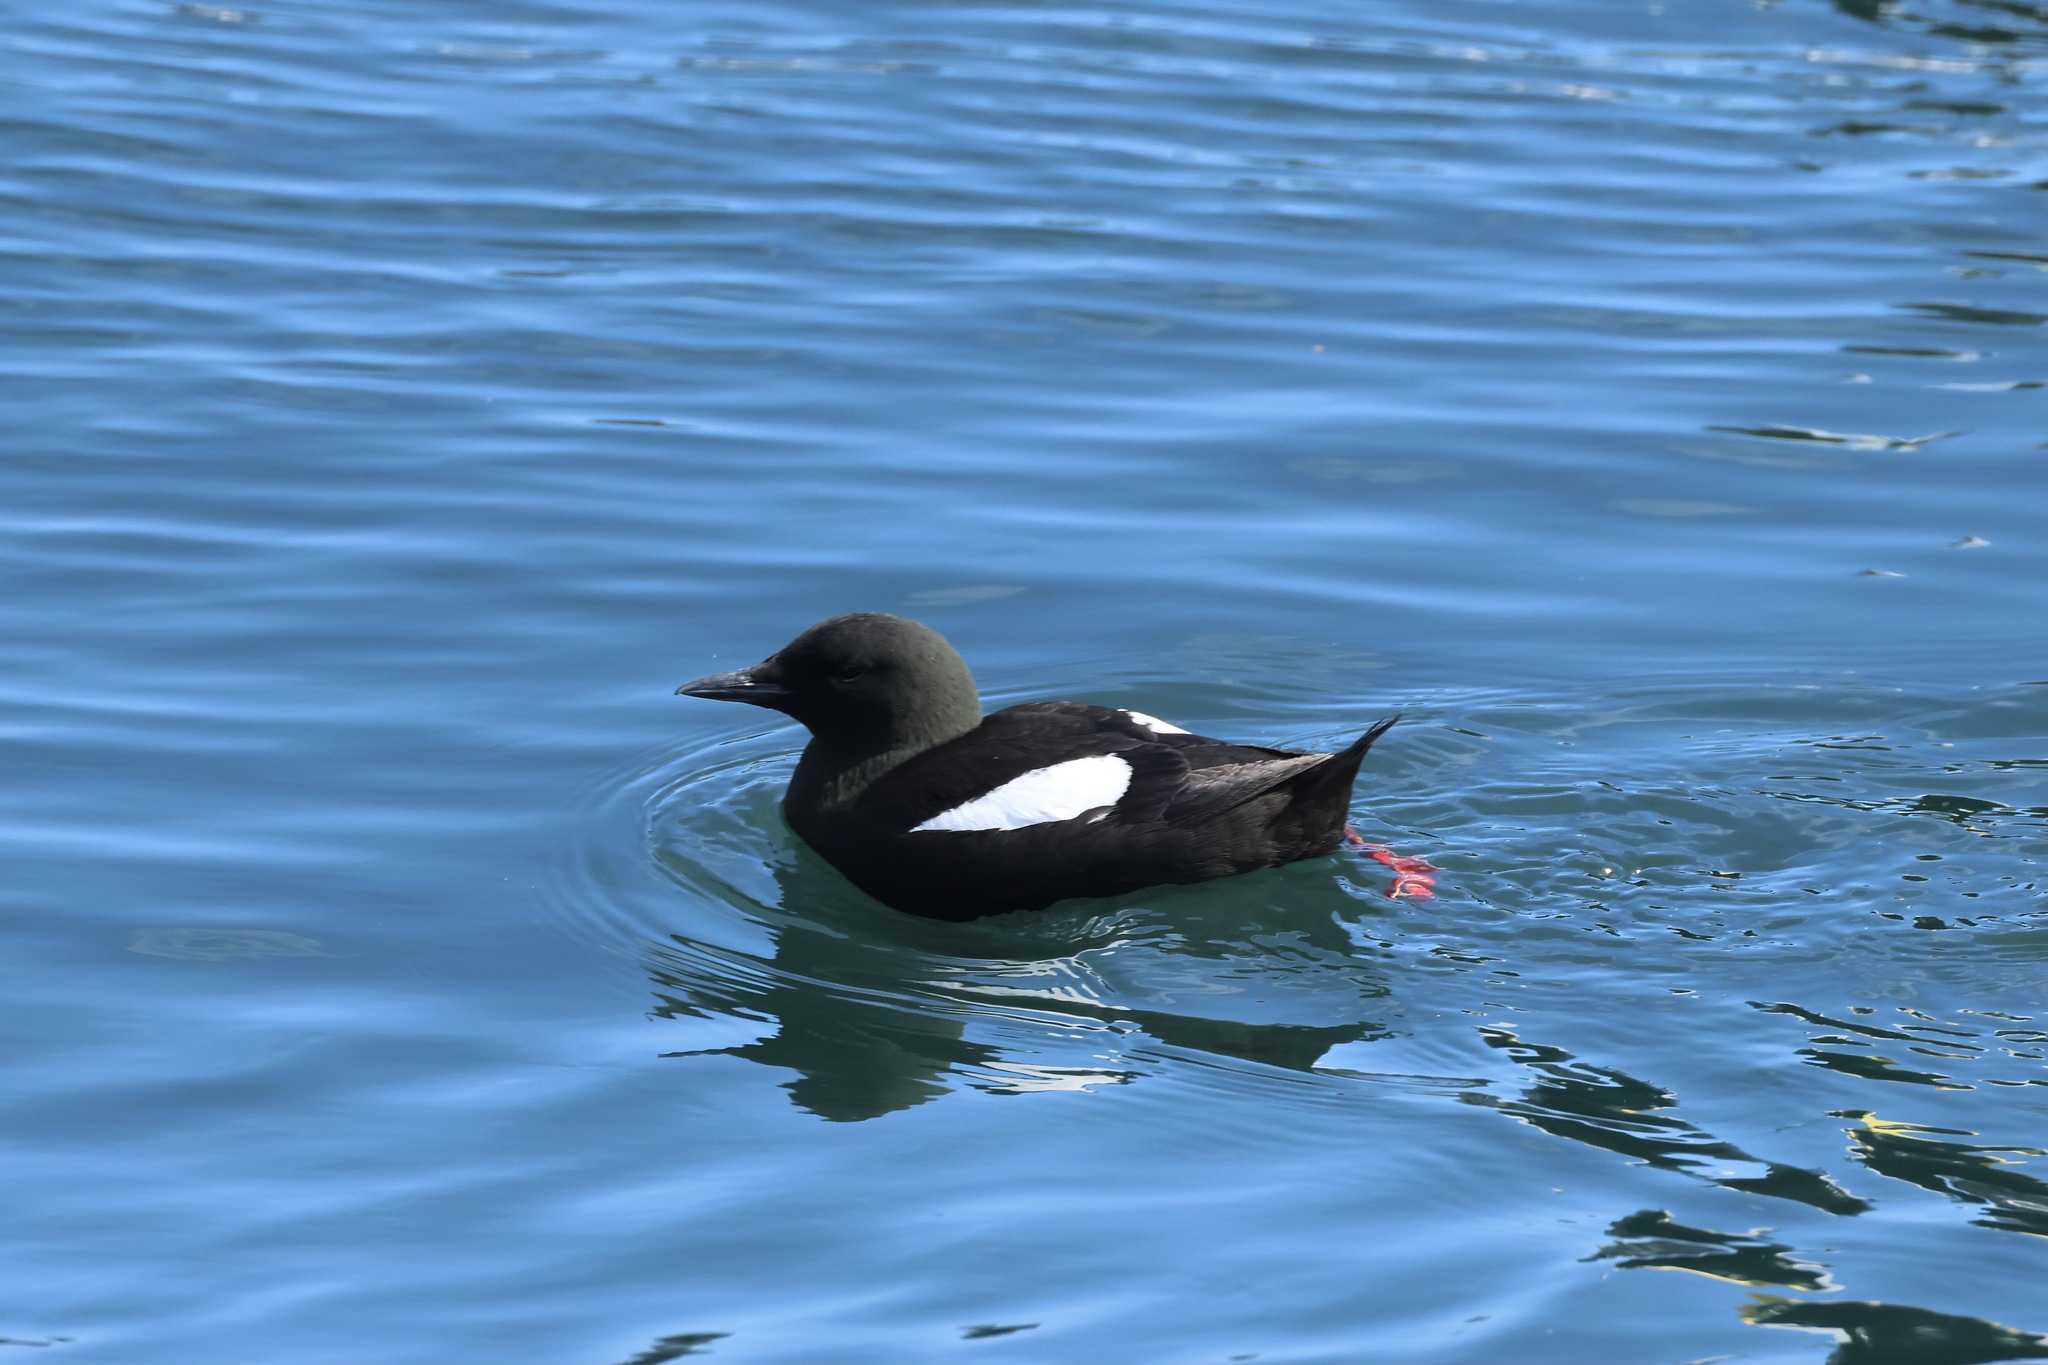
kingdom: Animalia
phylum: Chordata
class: Aves
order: Charadriiformes
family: Alcidae
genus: Cepphus
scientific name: Cepphus grylle
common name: Black guillemot
